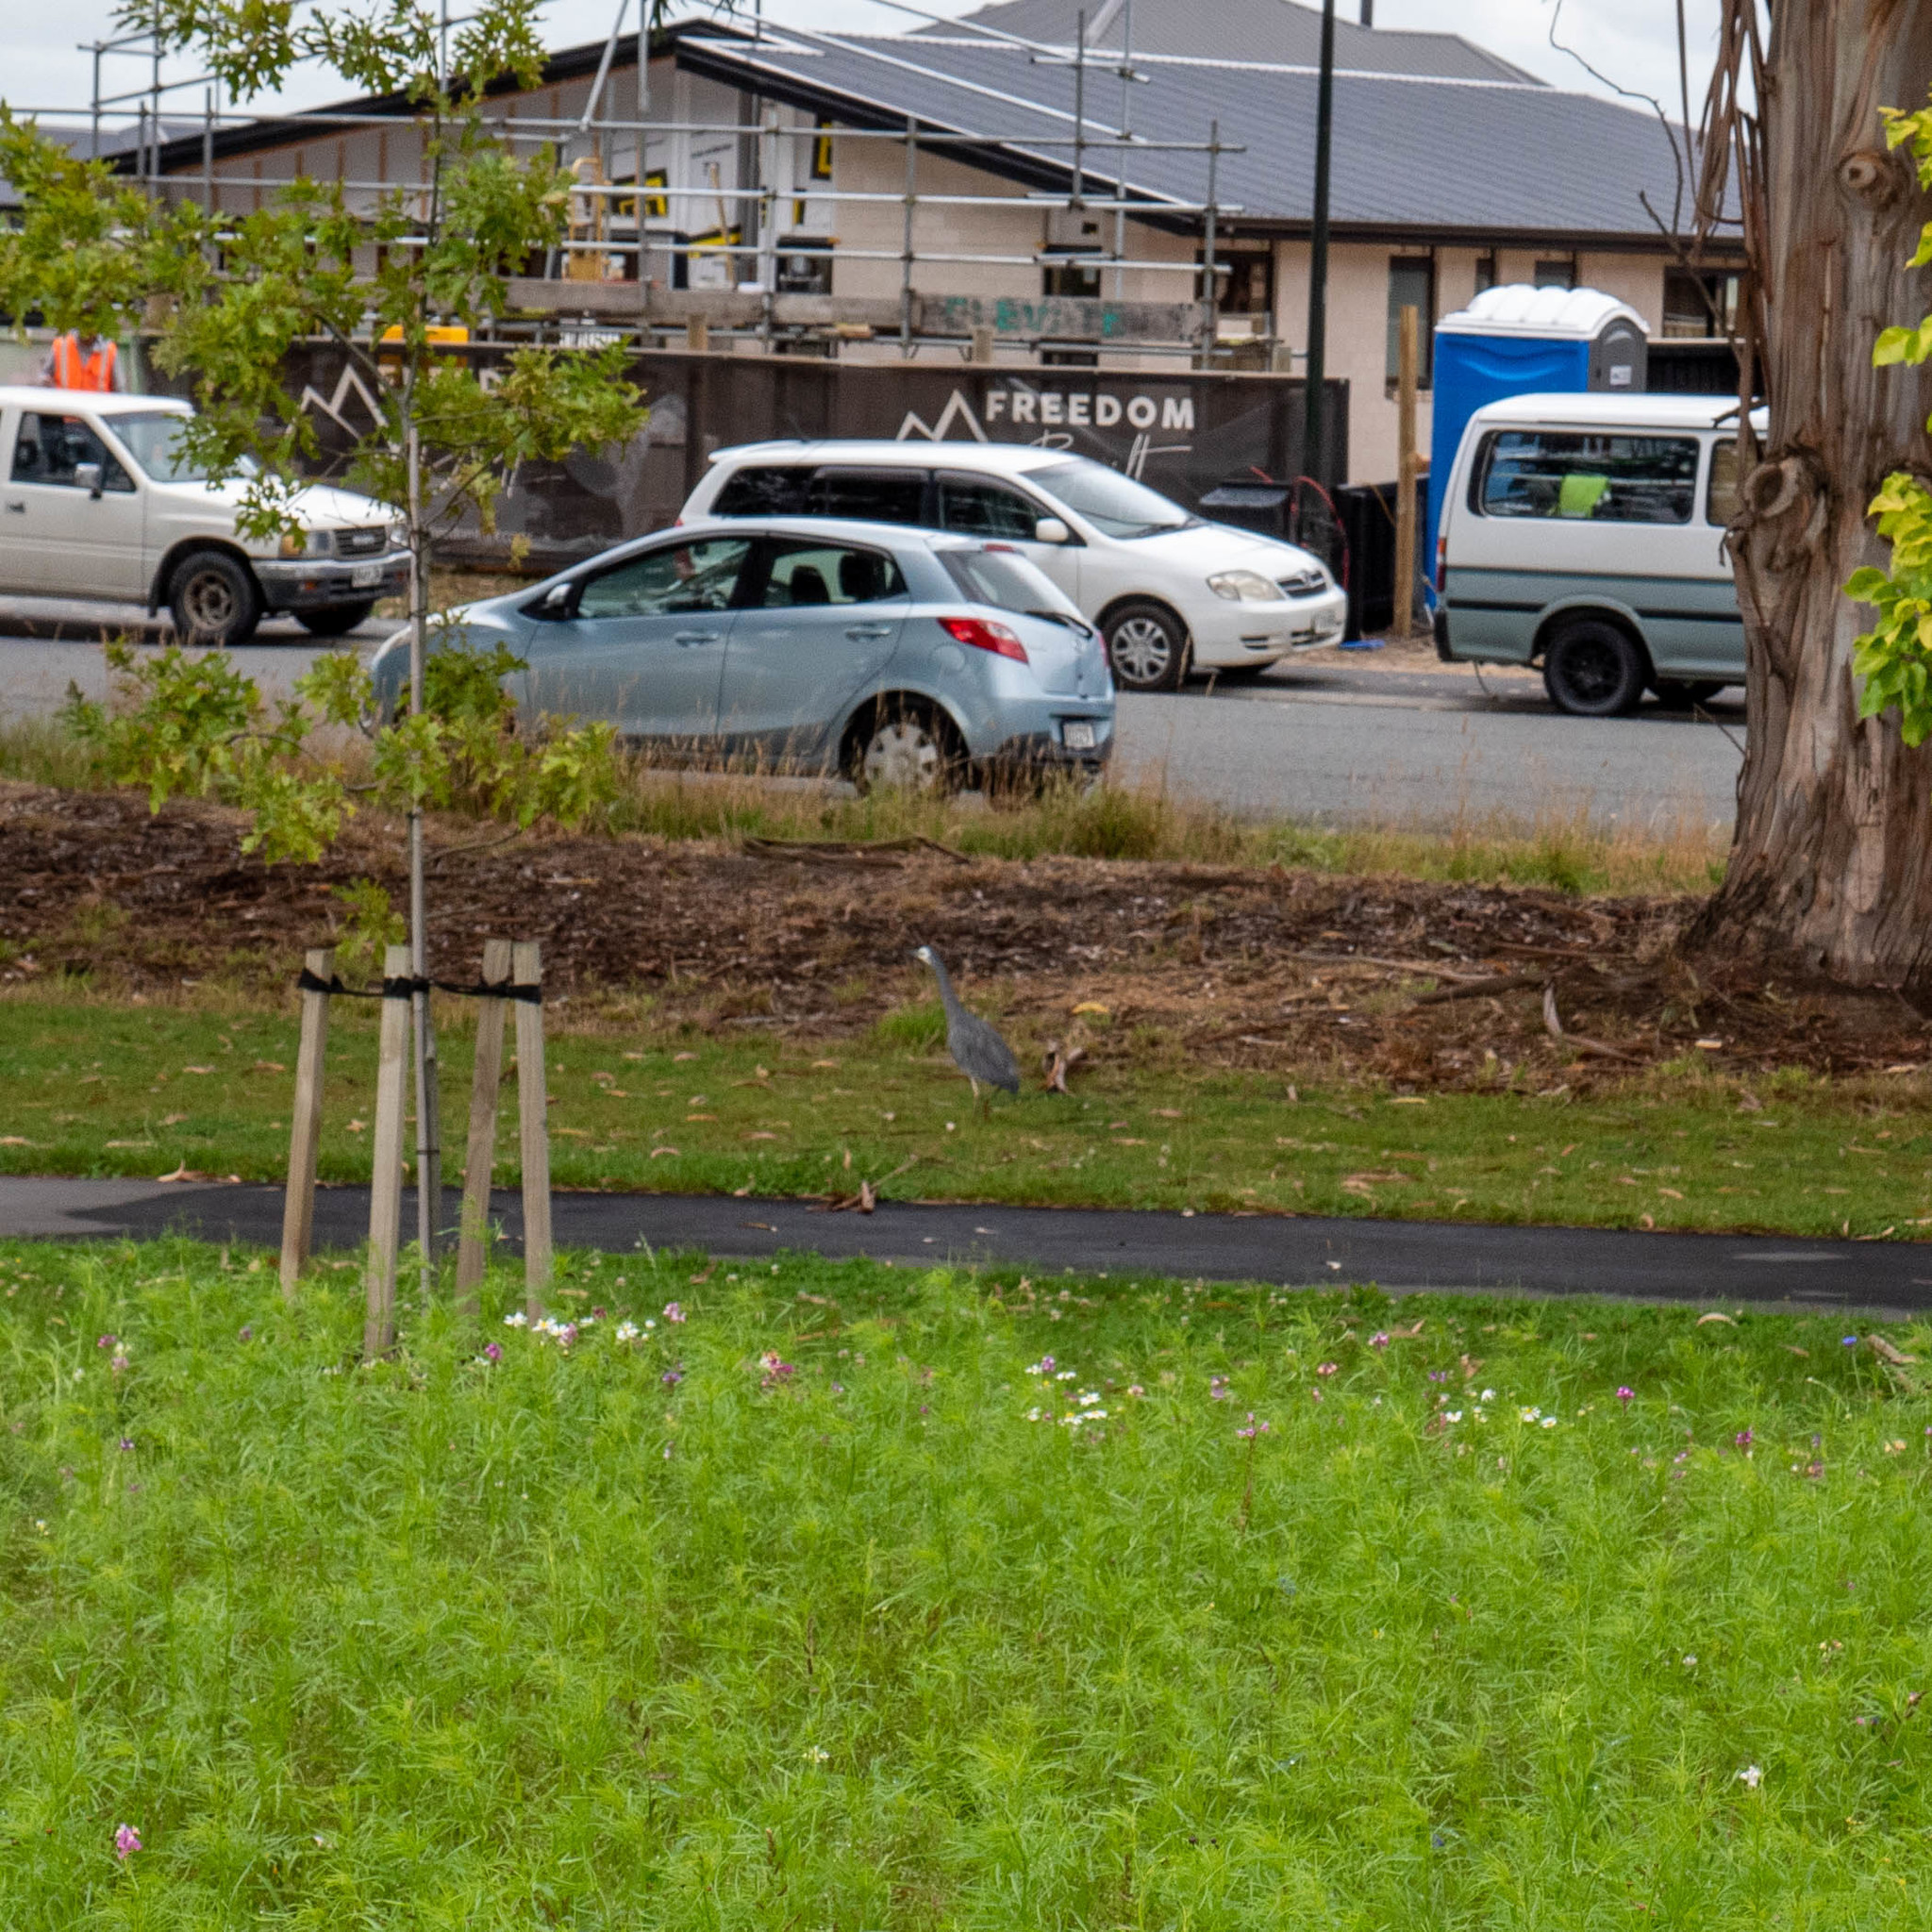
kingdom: Animalia
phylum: Chordata
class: Aves
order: Pelecaniformes
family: Ardeidae
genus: Egretta
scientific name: Egretta novaehollandiae
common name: White-faced heron
